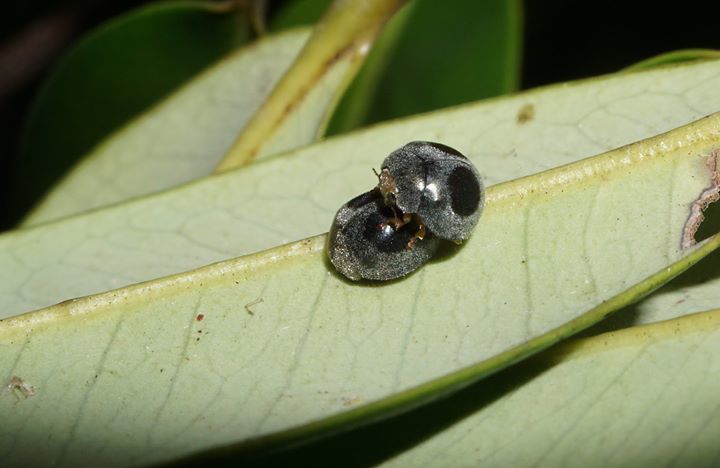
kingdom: Animalia
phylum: Arthropoda
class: Insecta
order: Coleoptera
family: Coccinellidae
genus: Azya
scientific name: Azya orbigera
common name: Ladybird beetle
